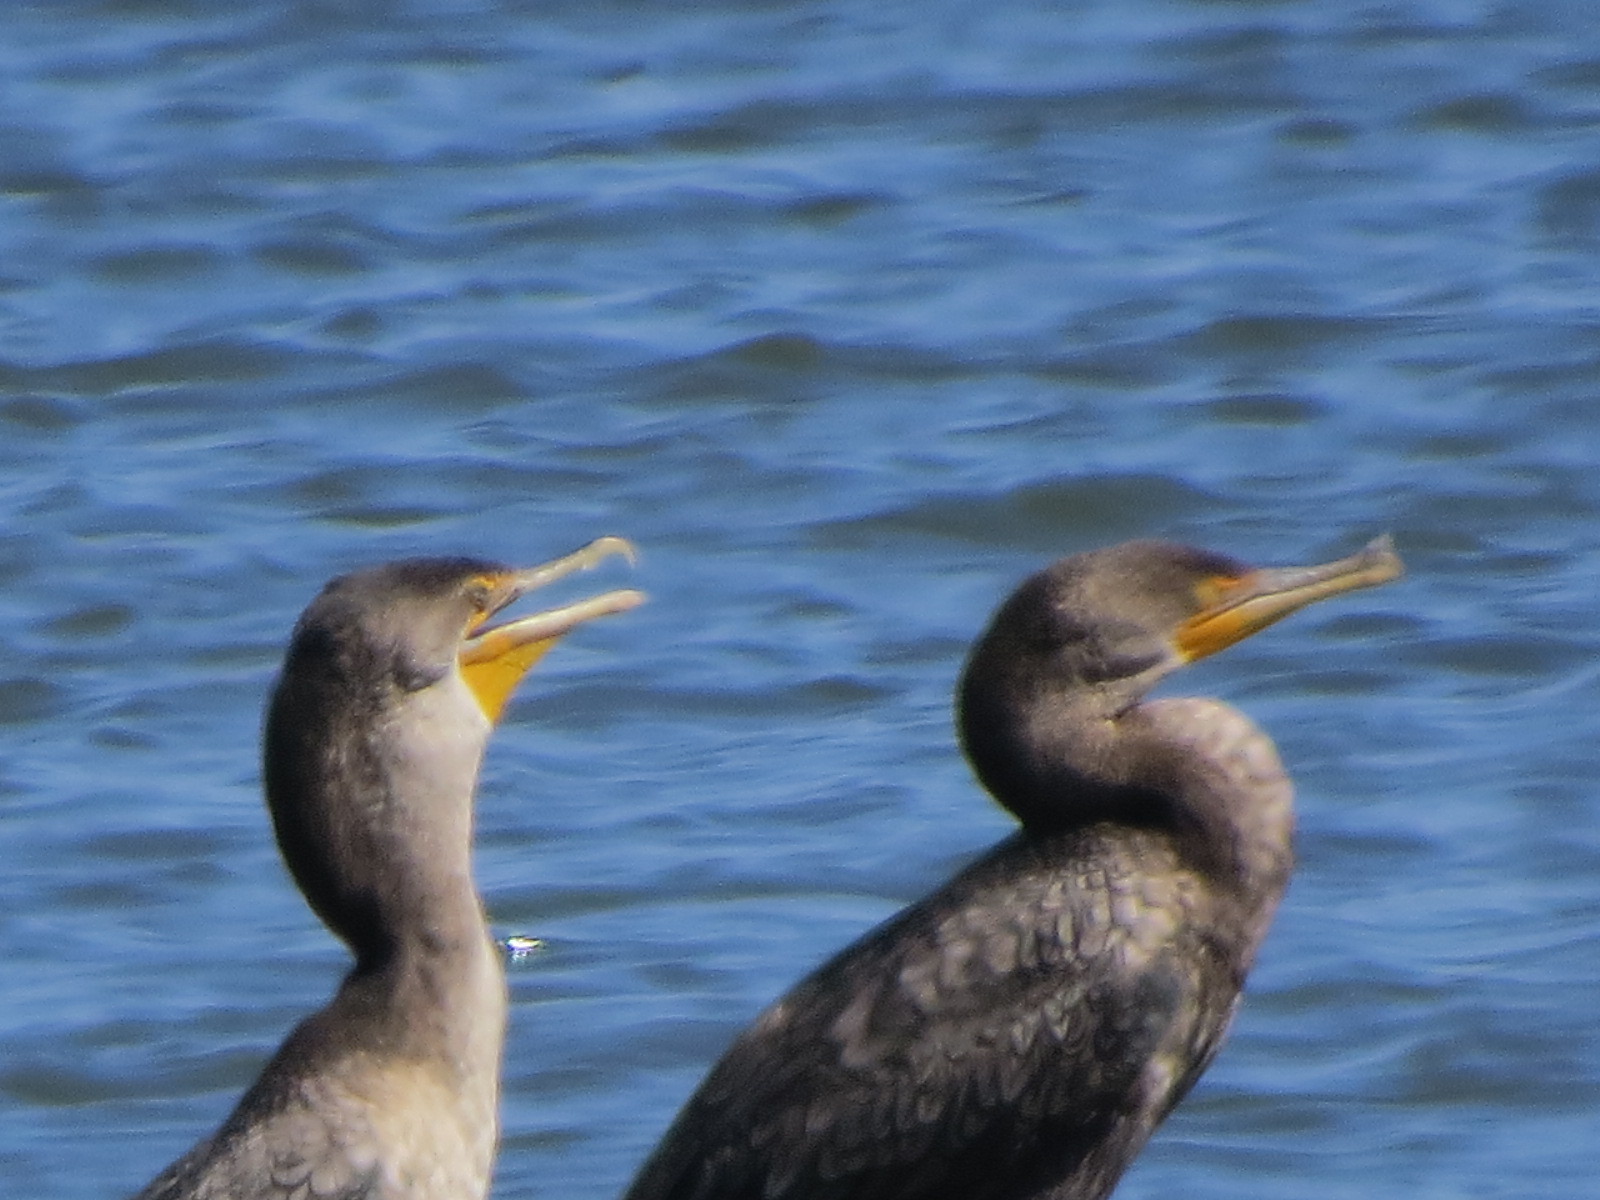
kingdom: Animalia
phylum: Chordata
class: Aves
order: Suliformes
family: Phalacrocoracidae
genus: Phalacrocorax
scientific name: Phalacrocorax auritus
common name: Double-crested cormorant
